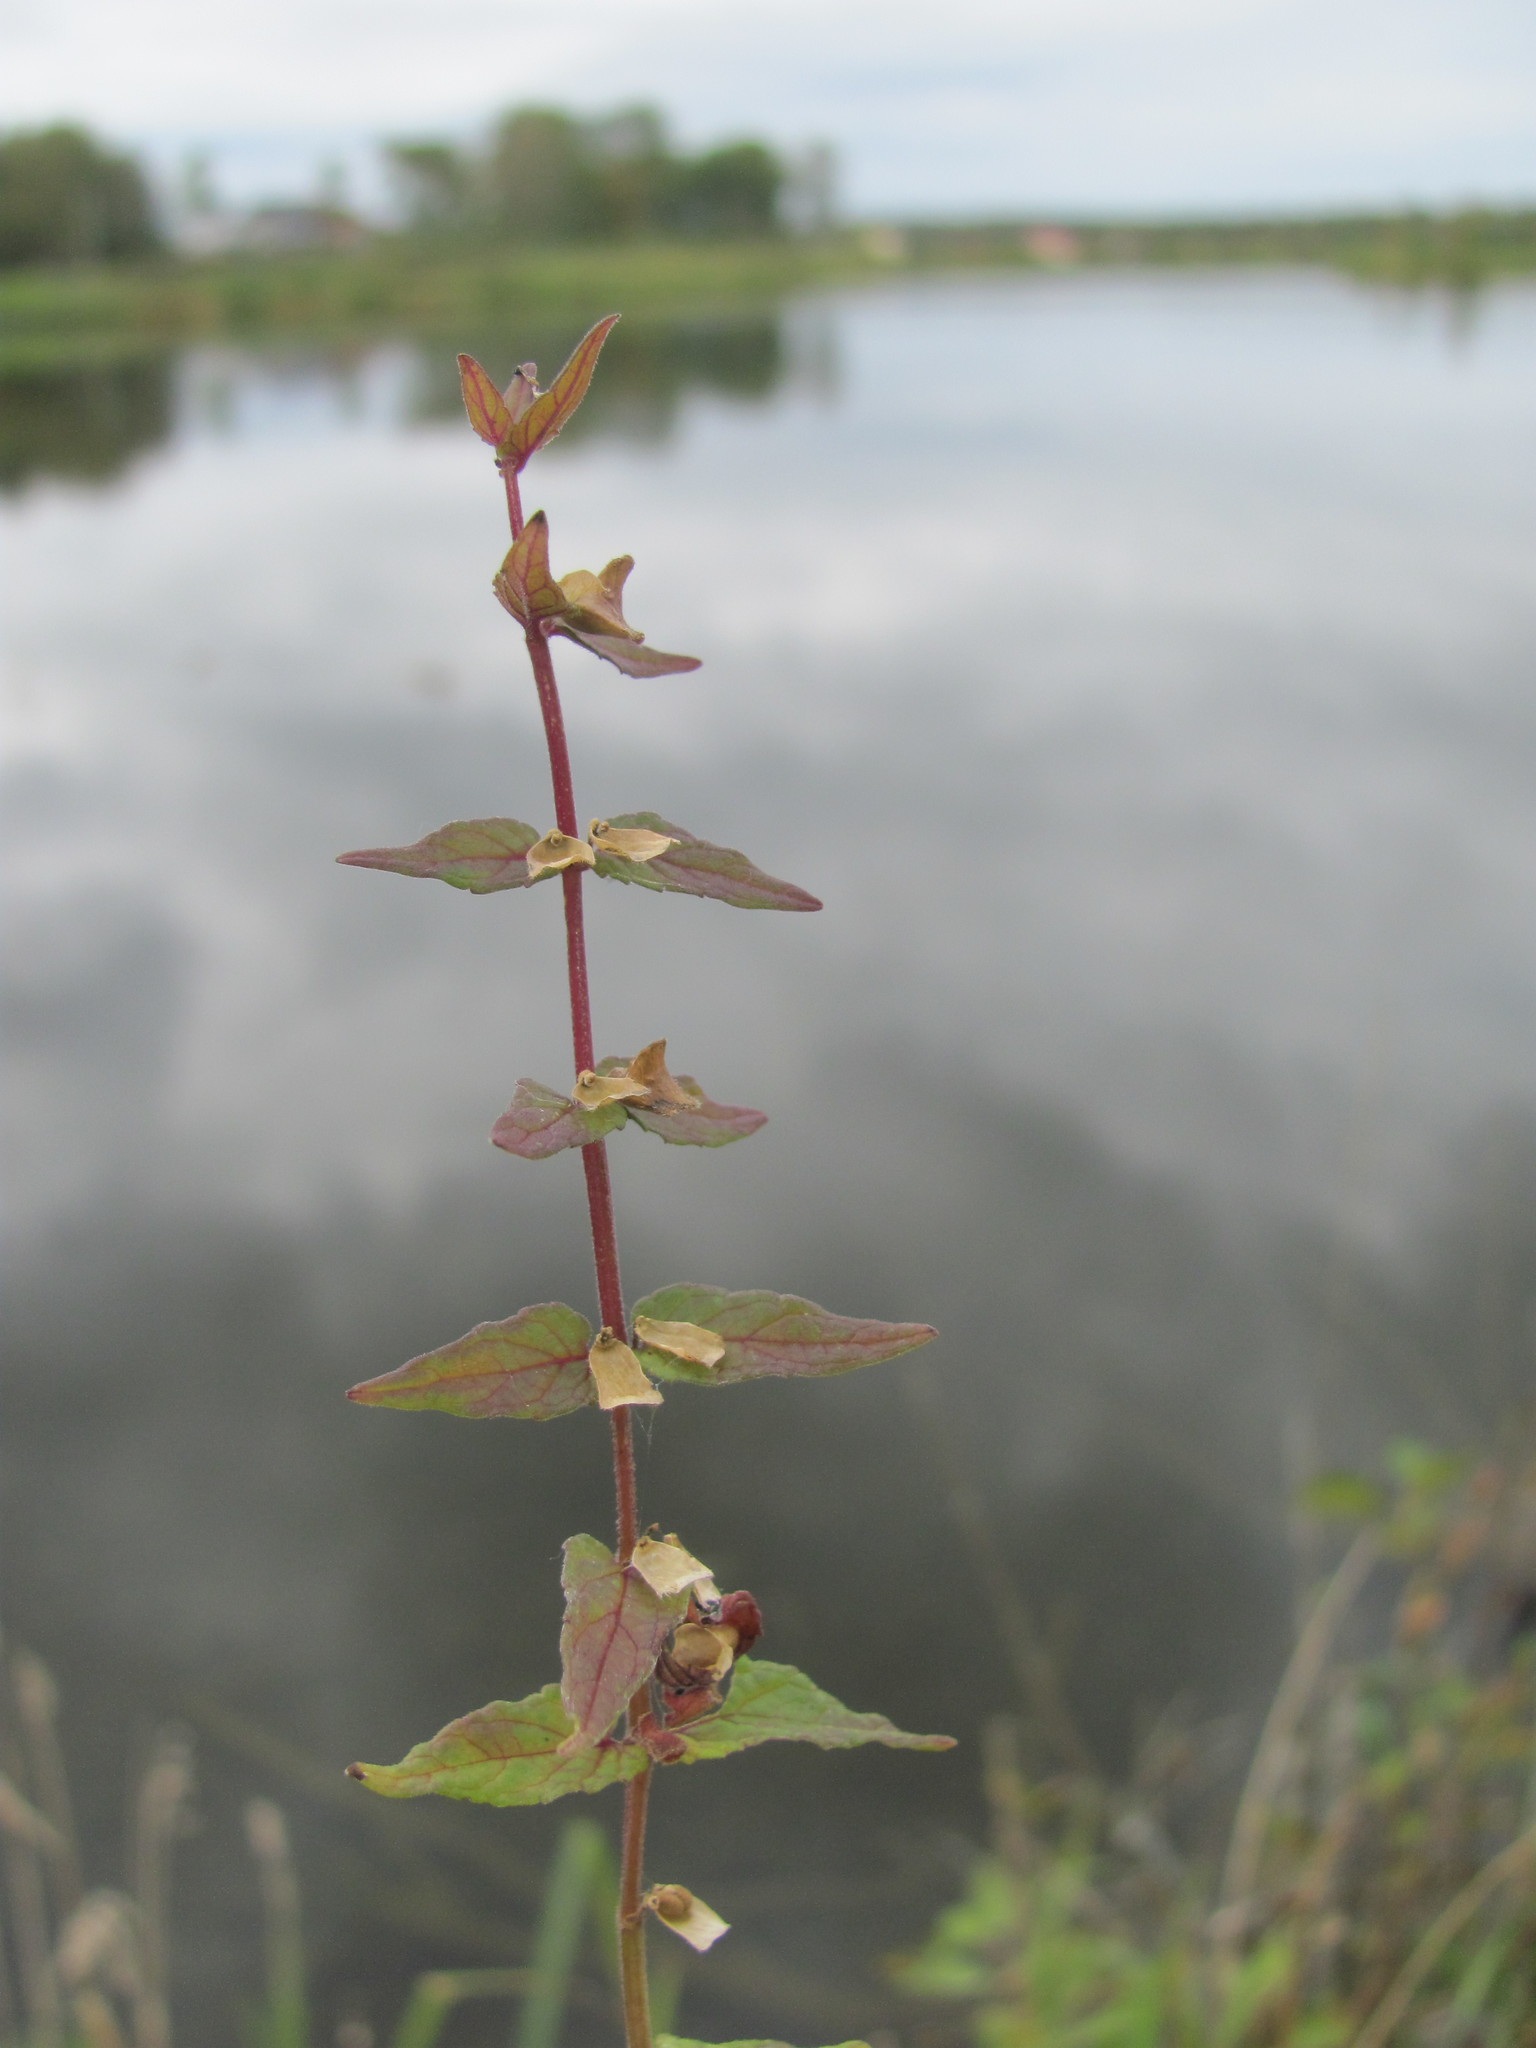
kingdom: Plantae
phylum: Tracheophyta
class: Magnoliopsida
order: Lamiales
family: Lamiaceae
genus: Scutellaria
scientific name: Scutellaria galericulata
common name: Skullcap
